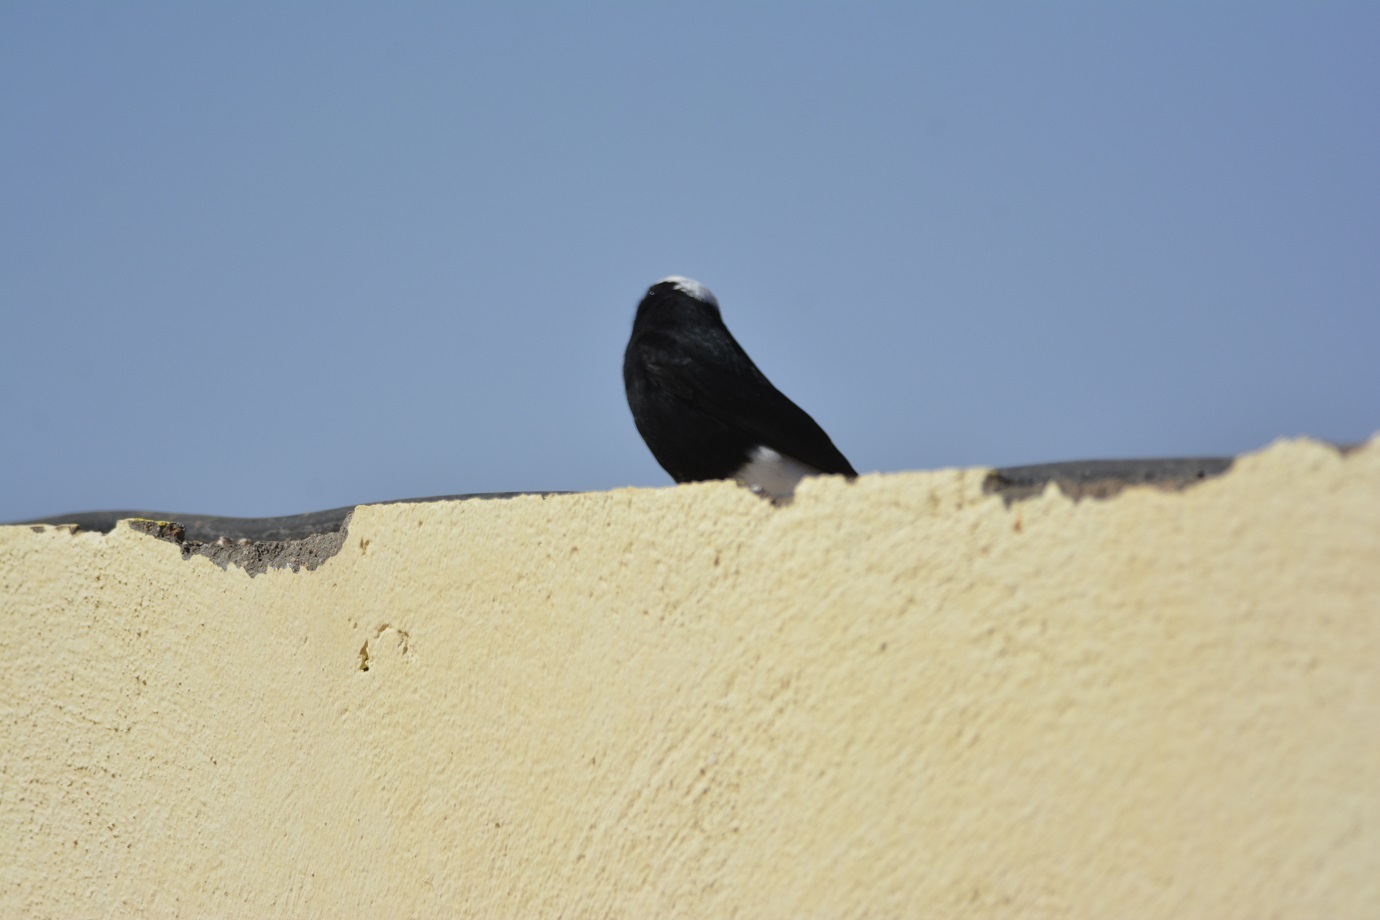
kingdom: Animalia
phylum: Chordata
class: Aves
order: Passeriformes
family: Muscicapidae
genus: Oenanthe
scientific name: Oenanthe leucopyga
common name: White-crowned wheatear
